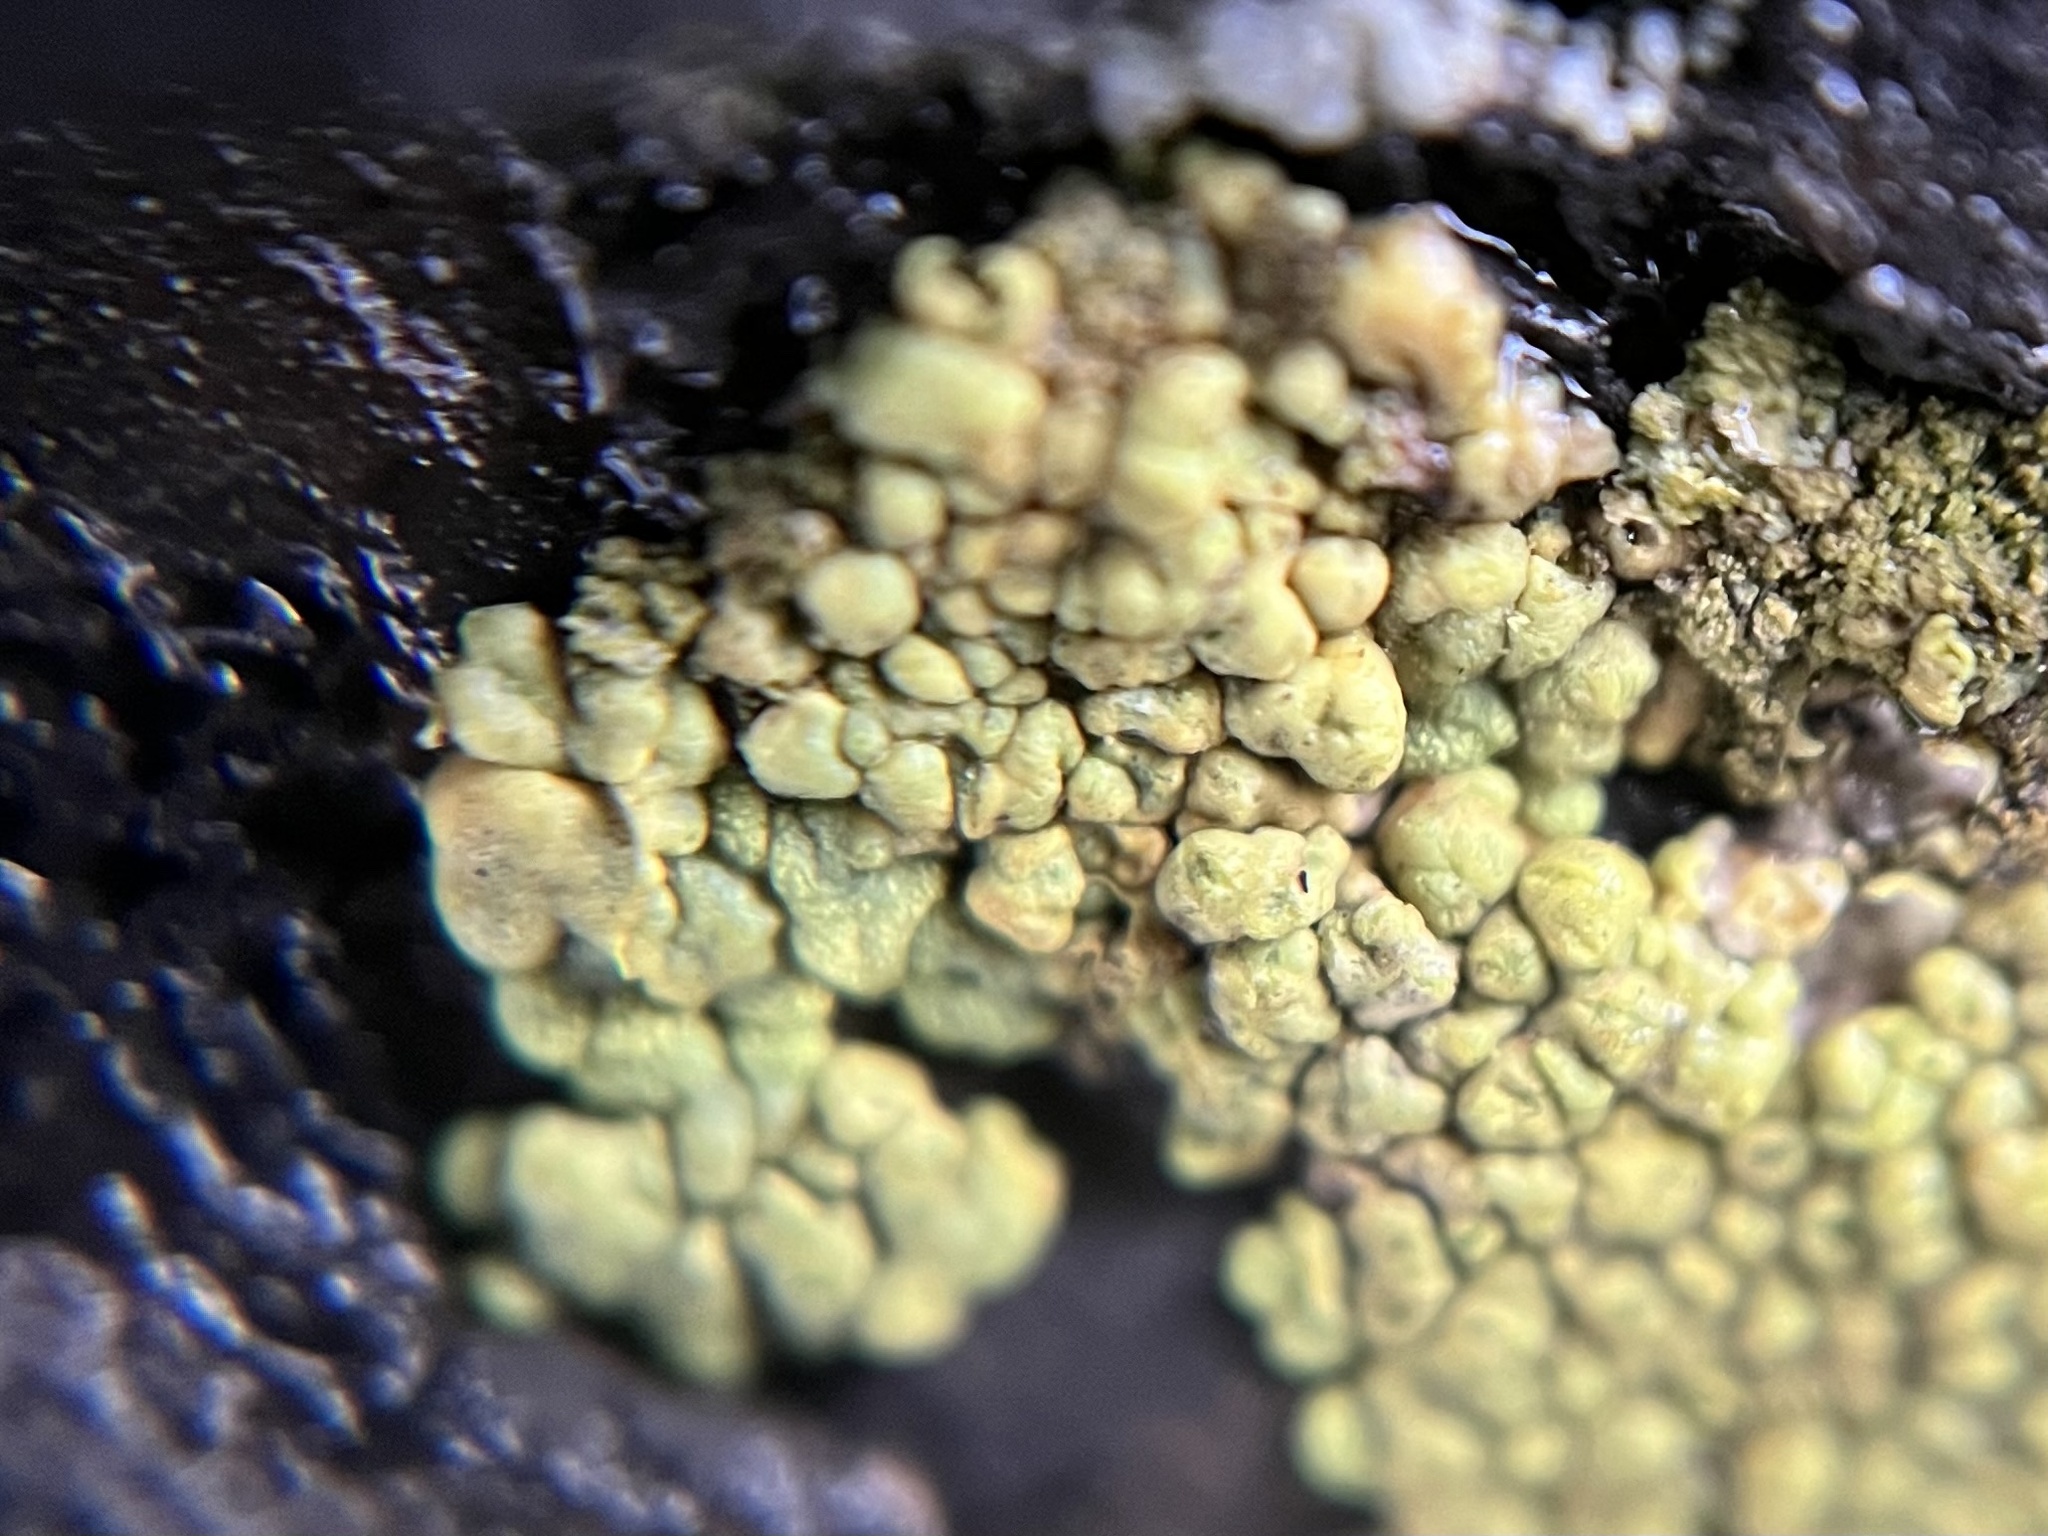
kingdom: Fungi
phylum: Ascomycota
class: Lecanoromycetes
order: Acarosporales
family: Acarosporaceae
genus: Pleopsidium
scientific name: Pleopsidium oxytonum
